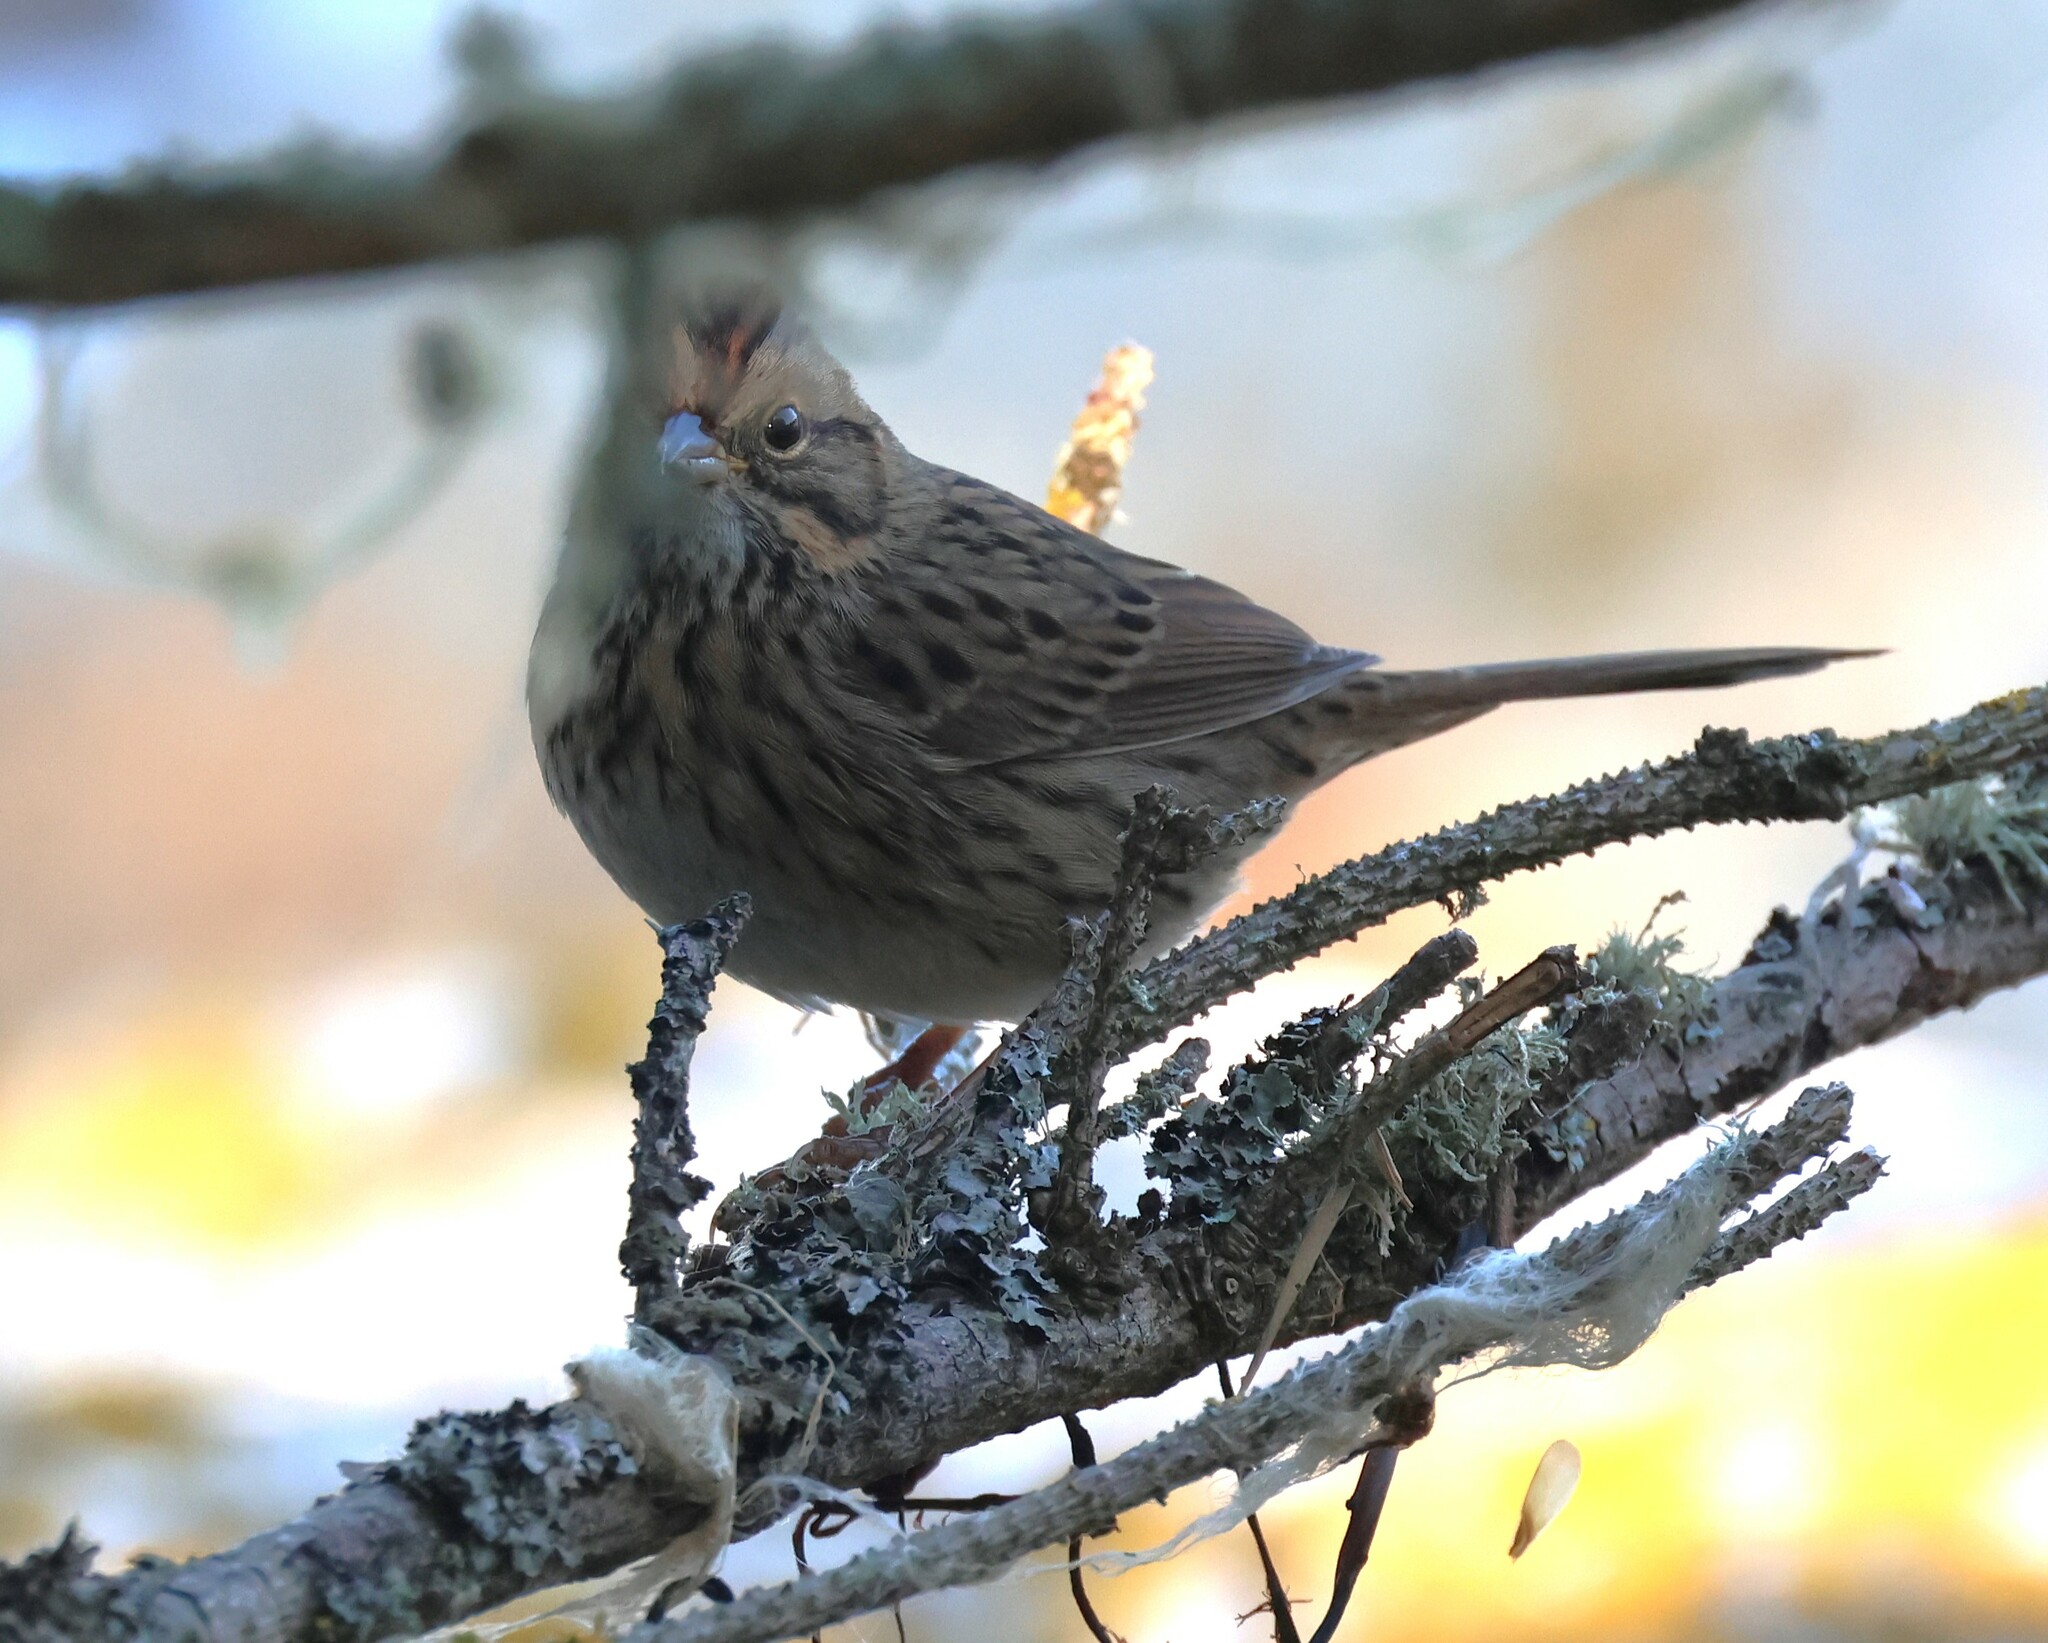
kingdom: Animalia
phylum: Chordata
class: Aves
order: Passeriformes
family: Passerellidae
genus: Melospiza
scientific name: Melospiza lincolnii
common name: Lincoln's sparrow
